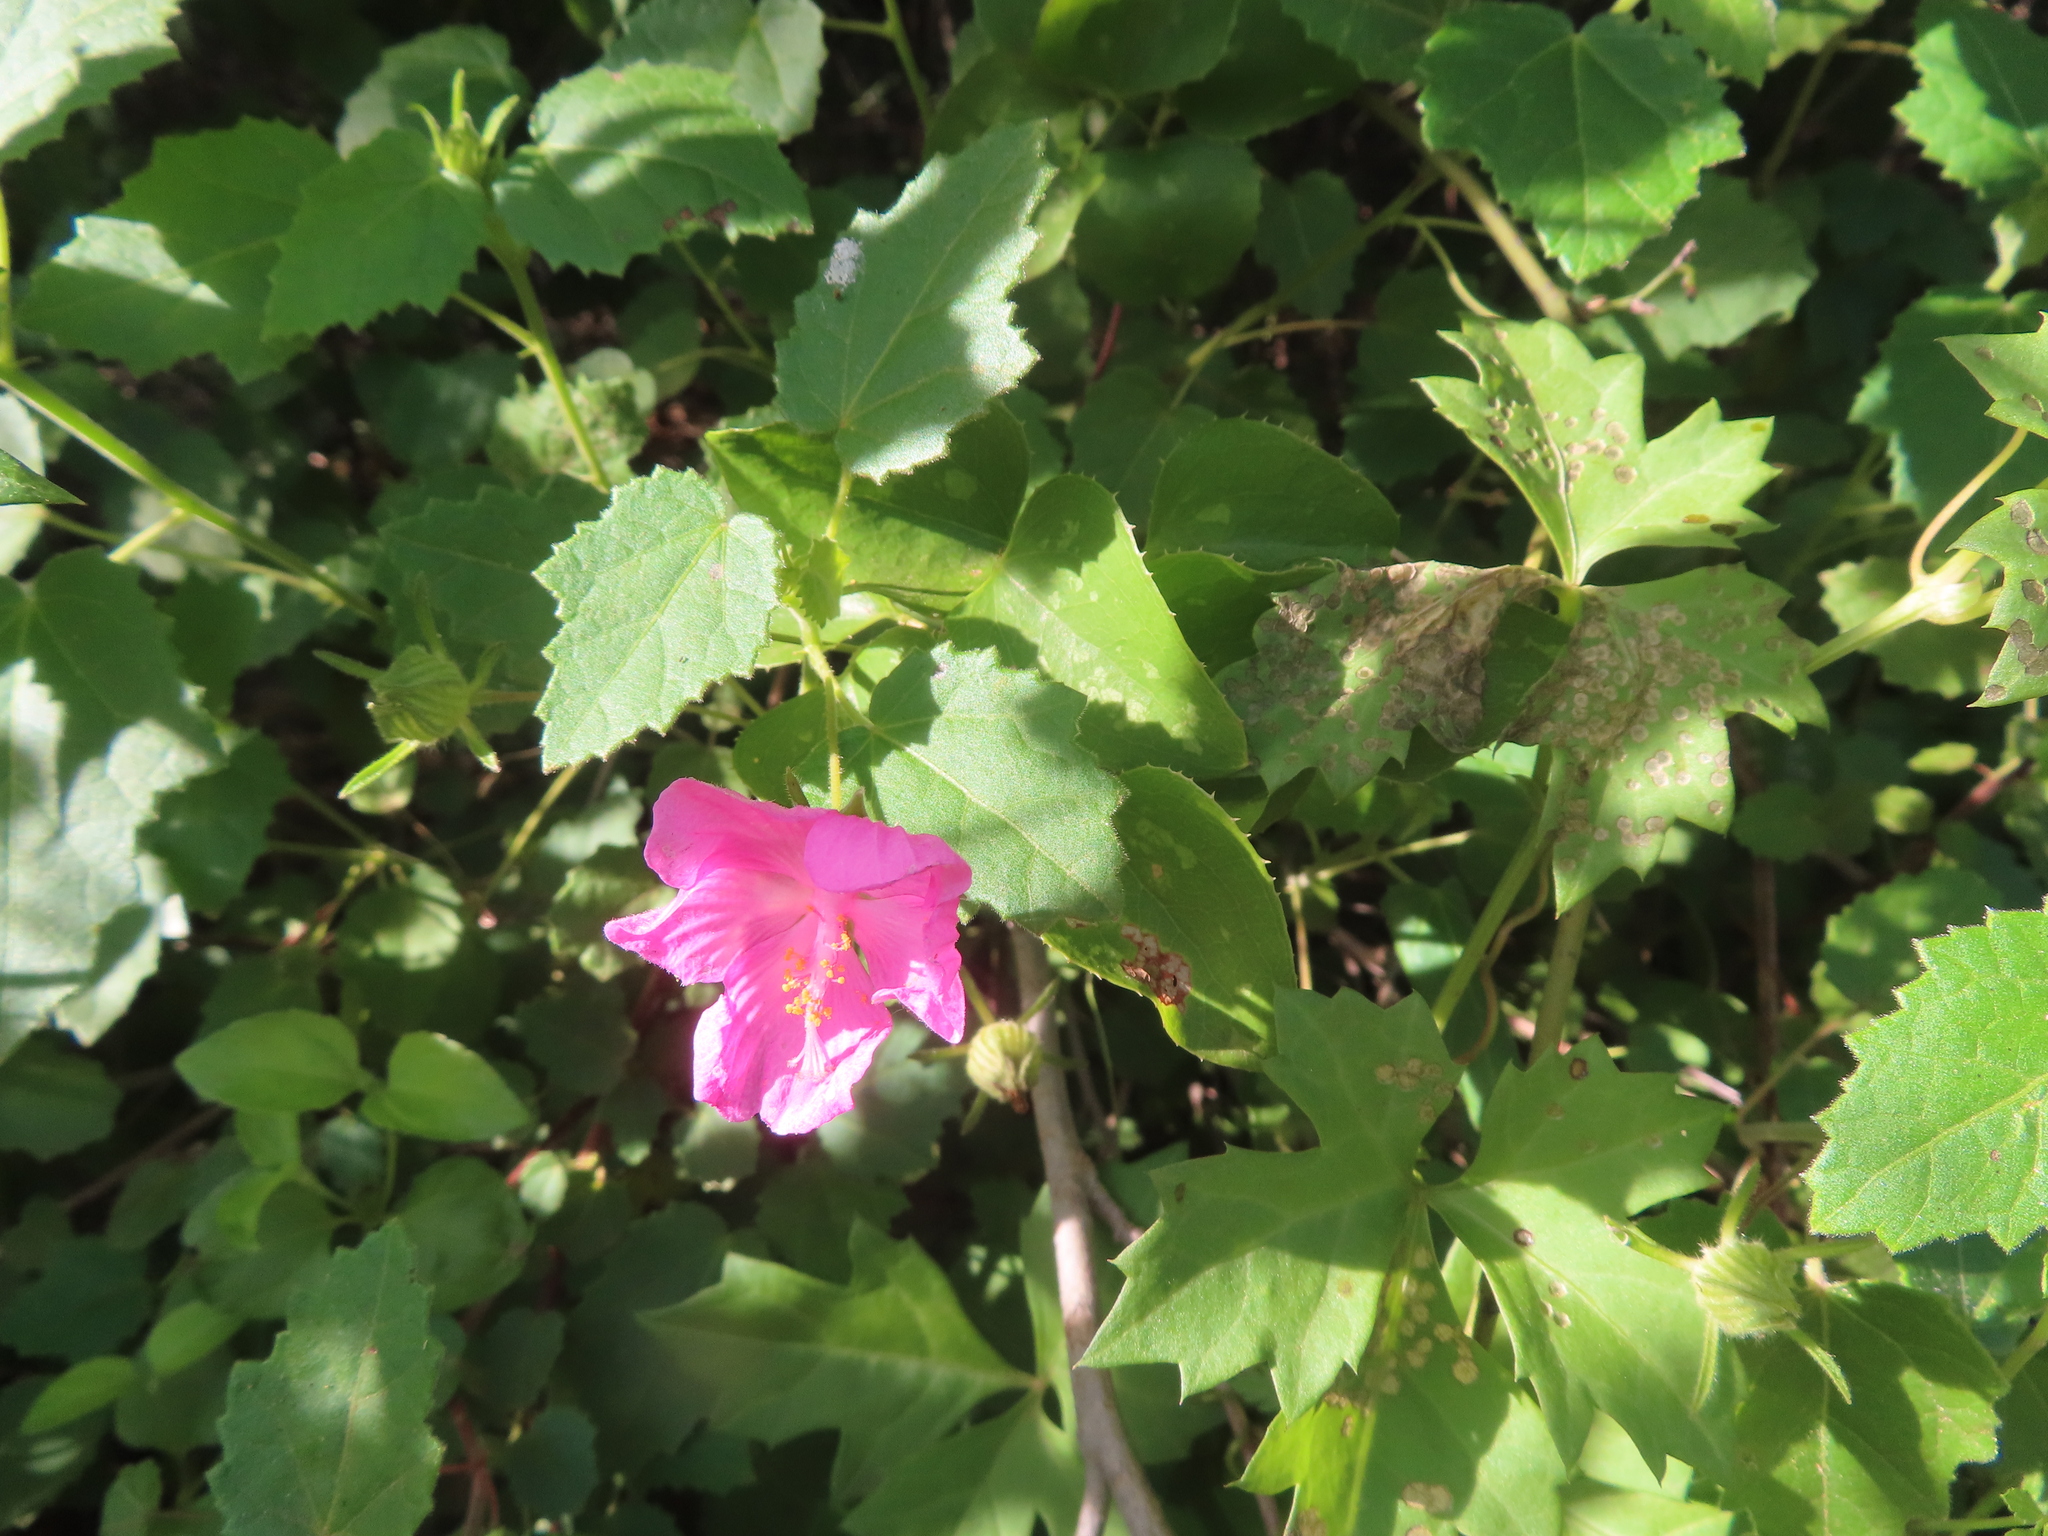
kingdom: Plantae
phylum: Tracheophyta
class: Magnoliopsida
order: Malvales
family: Malvaceae
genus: Pavonia
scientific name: Pavonia lasiopetala
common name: Texas swamp-mallow
